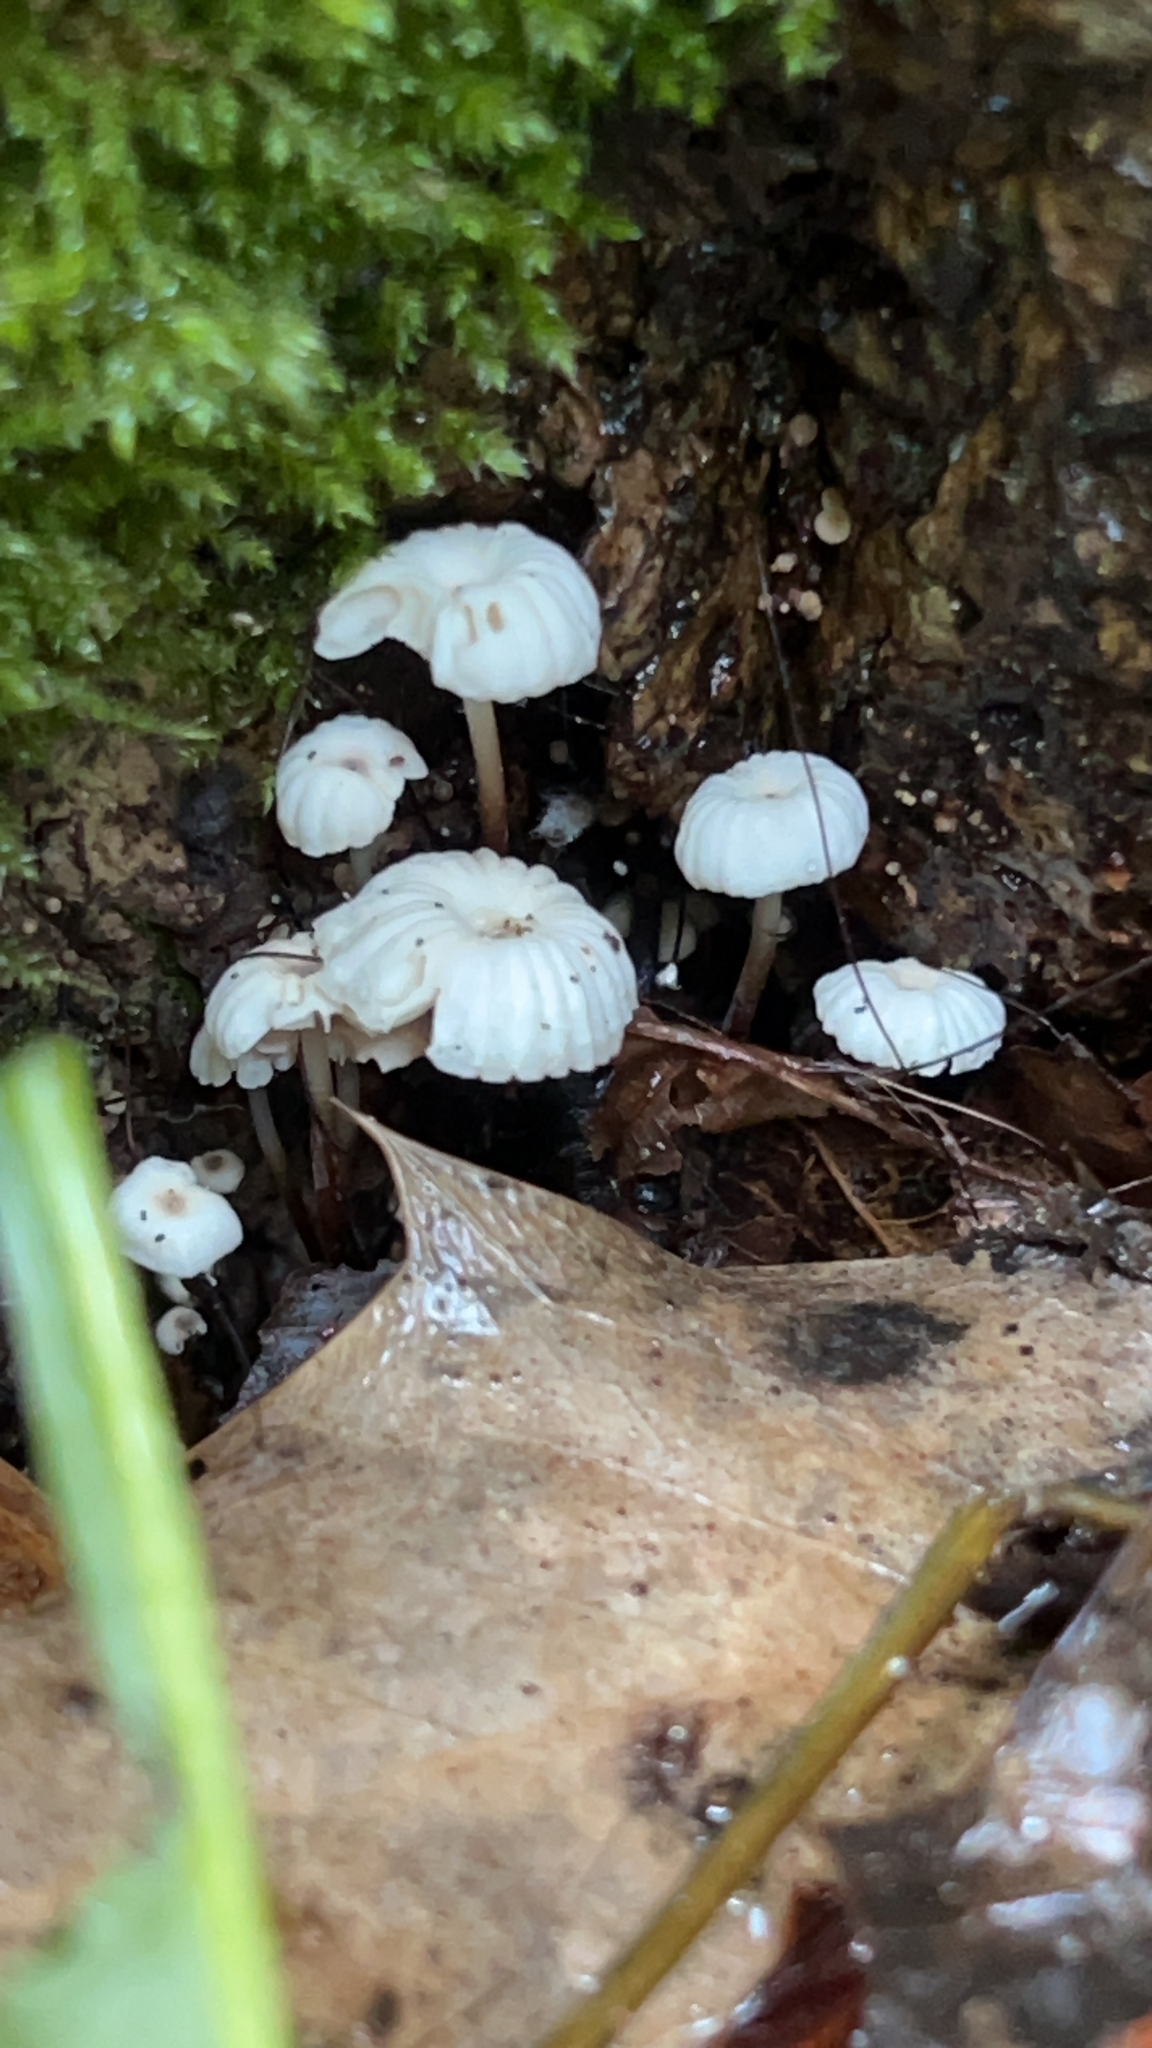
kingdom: Fungi
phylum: Basidiomycota
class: Agaricomycetes
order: Agaricales
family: Marasmiaceae
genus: Marasmius
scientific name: Marasmius rotula
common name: Collared parachute
